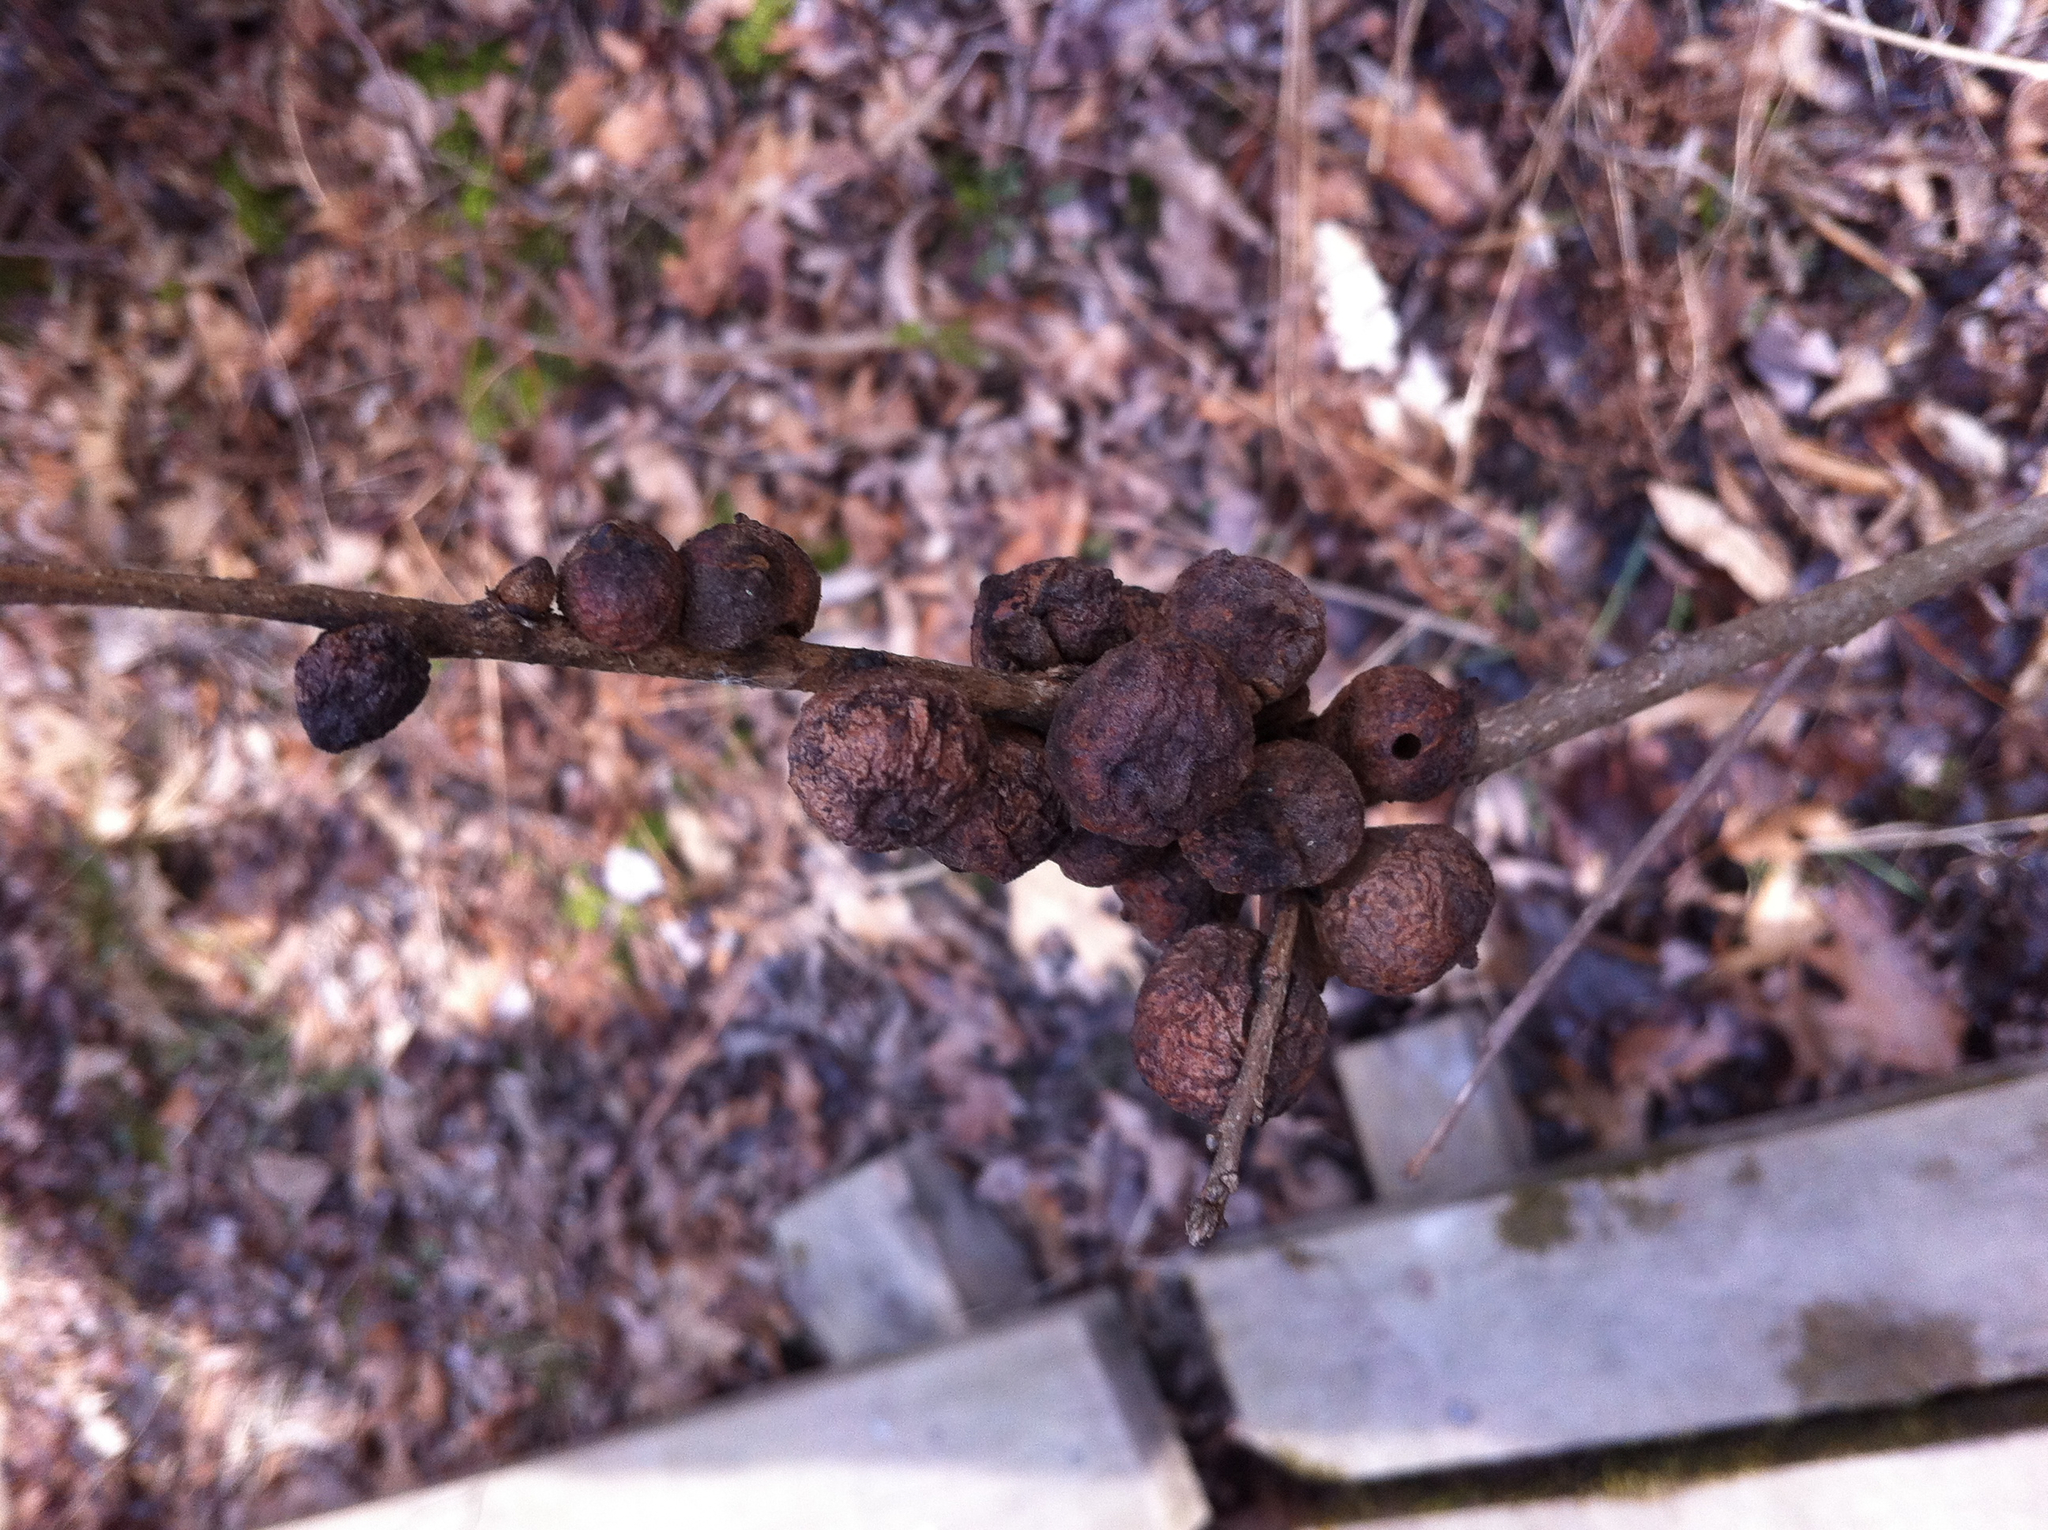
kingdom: Animalia
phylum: Arthropoda
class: Insecta
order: Hymenoptera
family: Cynipidae
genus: Disholcaspis
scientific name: Disholcaspis
